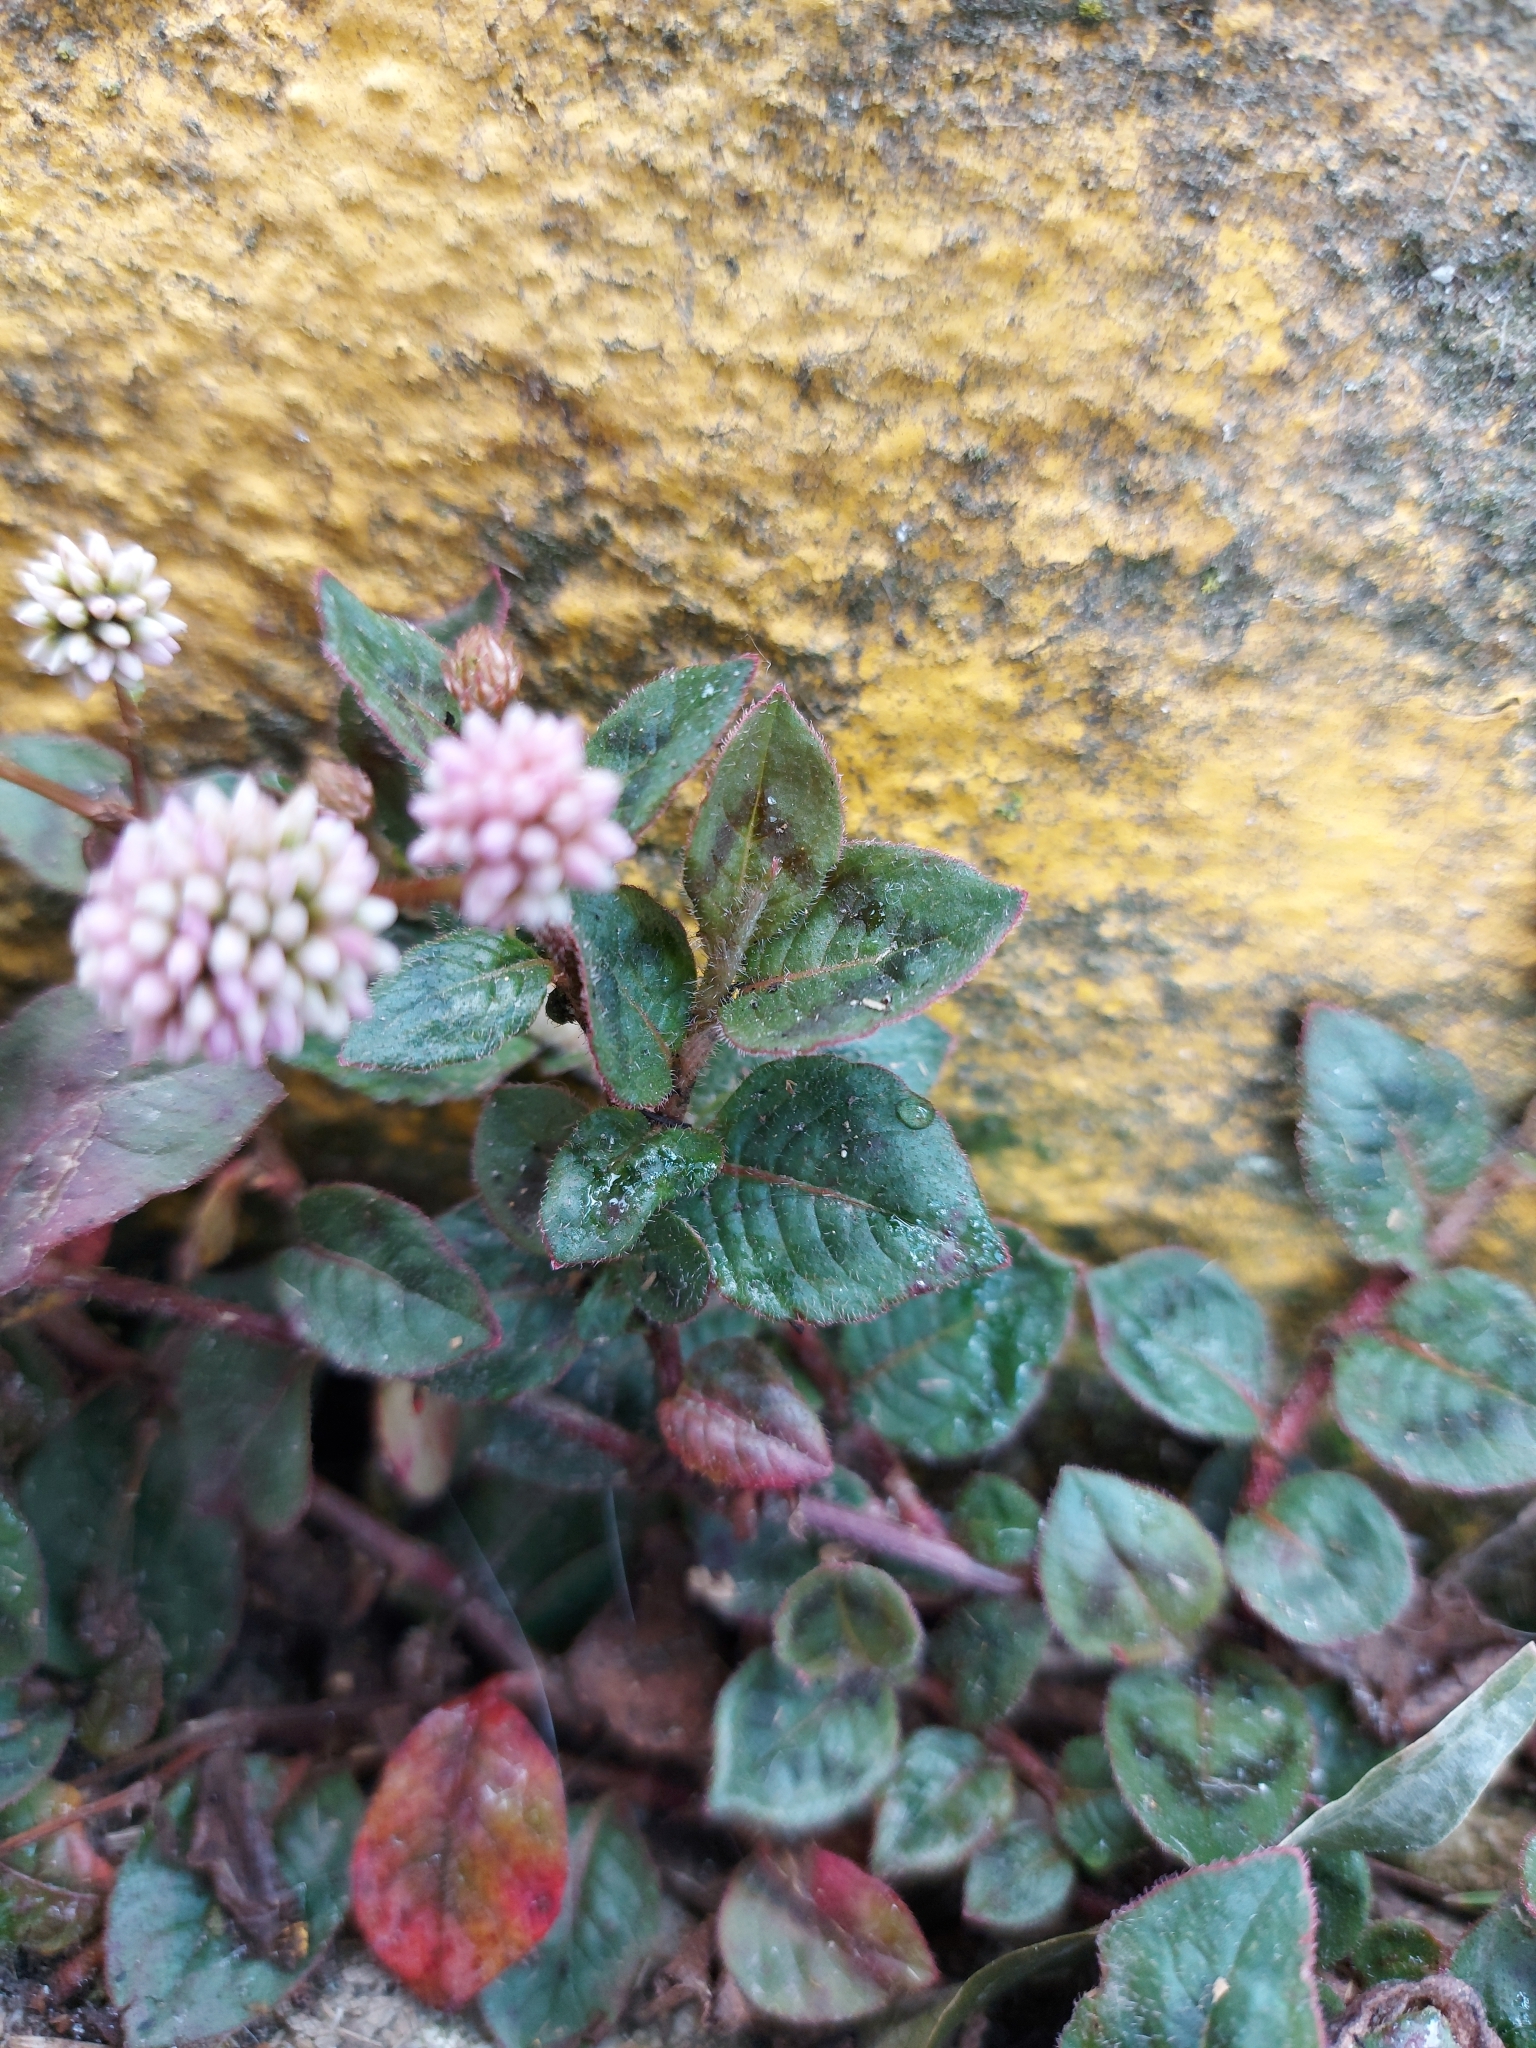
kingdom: Plantae
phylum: Tracheophyta
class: Magnoliopsida
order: Caryophyllales
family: Polygonaceae
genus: Persicaria
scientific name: Persicaria capitata
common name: Pinkhead smartweed
